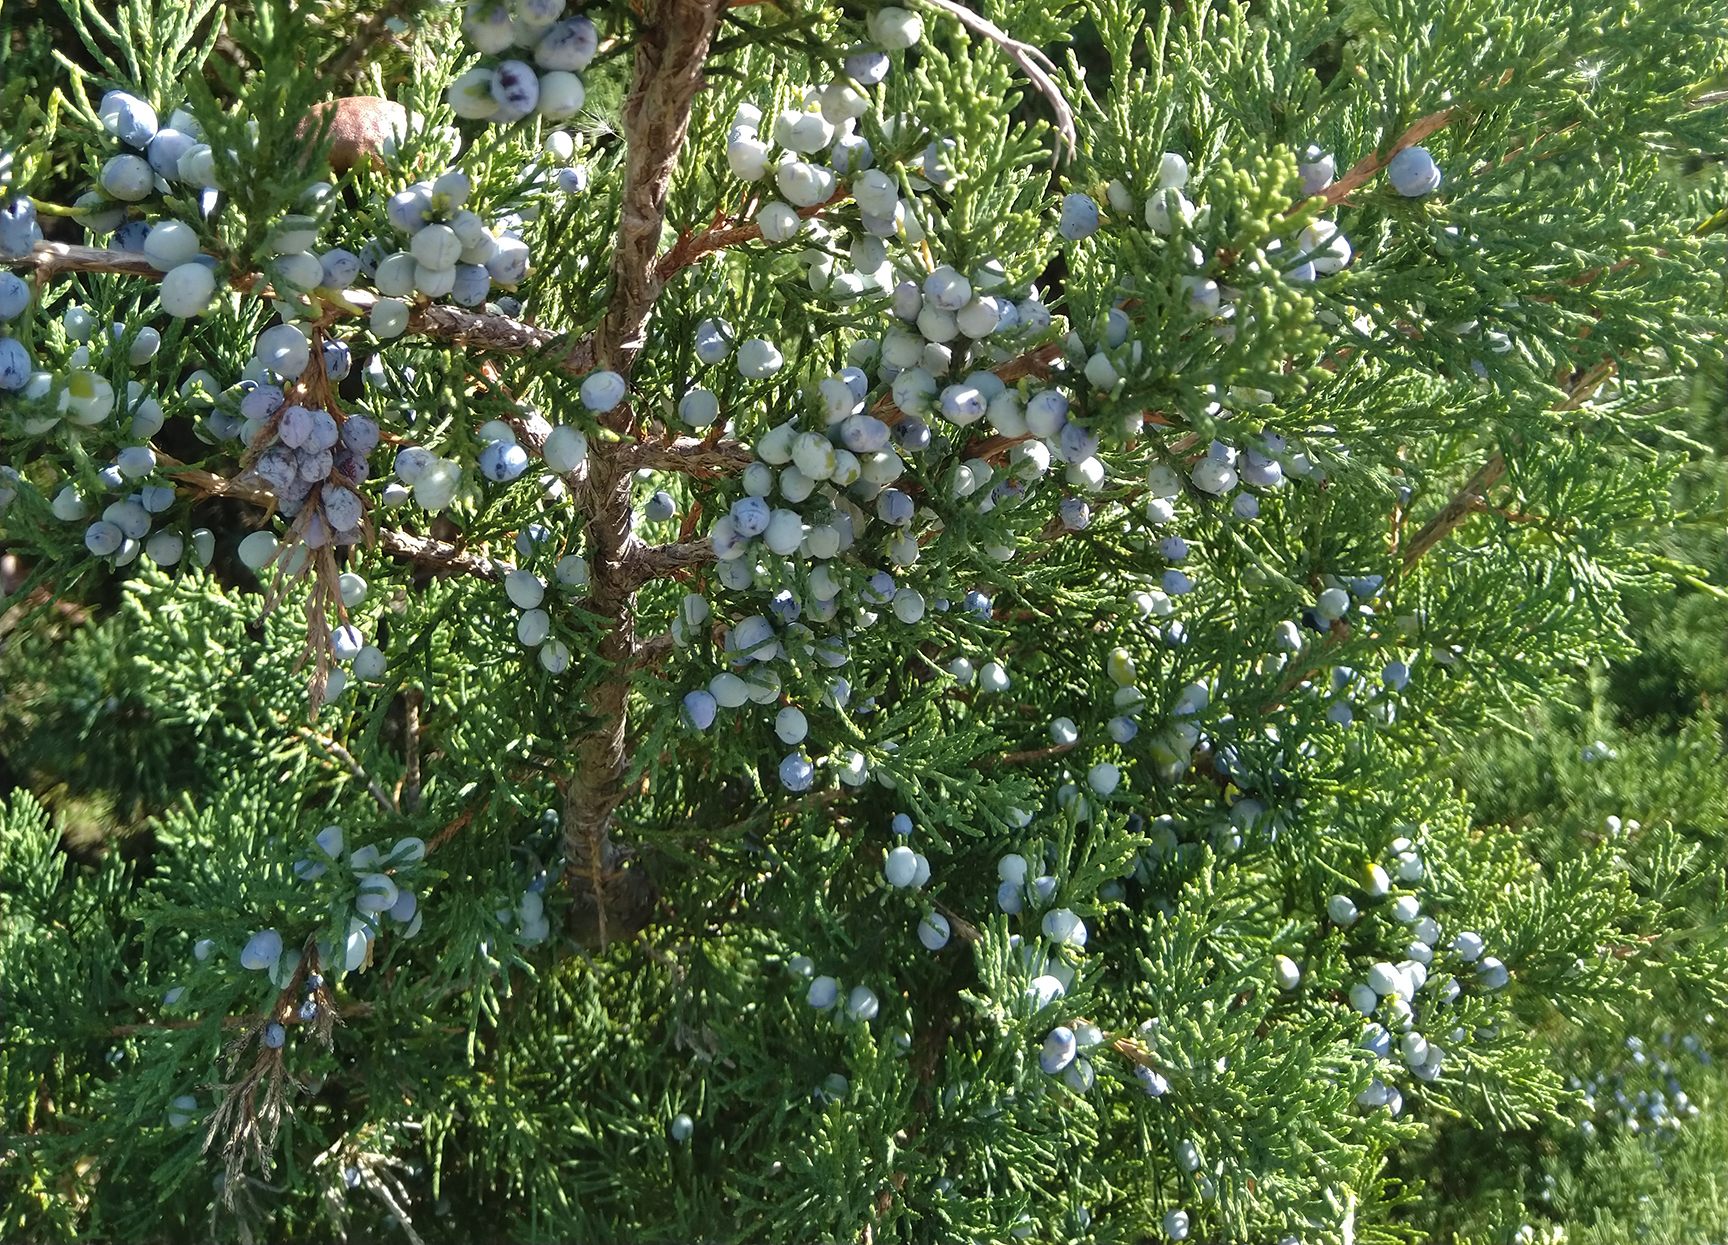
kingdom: Plantae
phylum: Tracheophyta
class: Pinopsida
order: Pinales
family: Cupressaceae
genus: Juniperus
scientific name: Juniperus virginiana
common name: Red juniper
